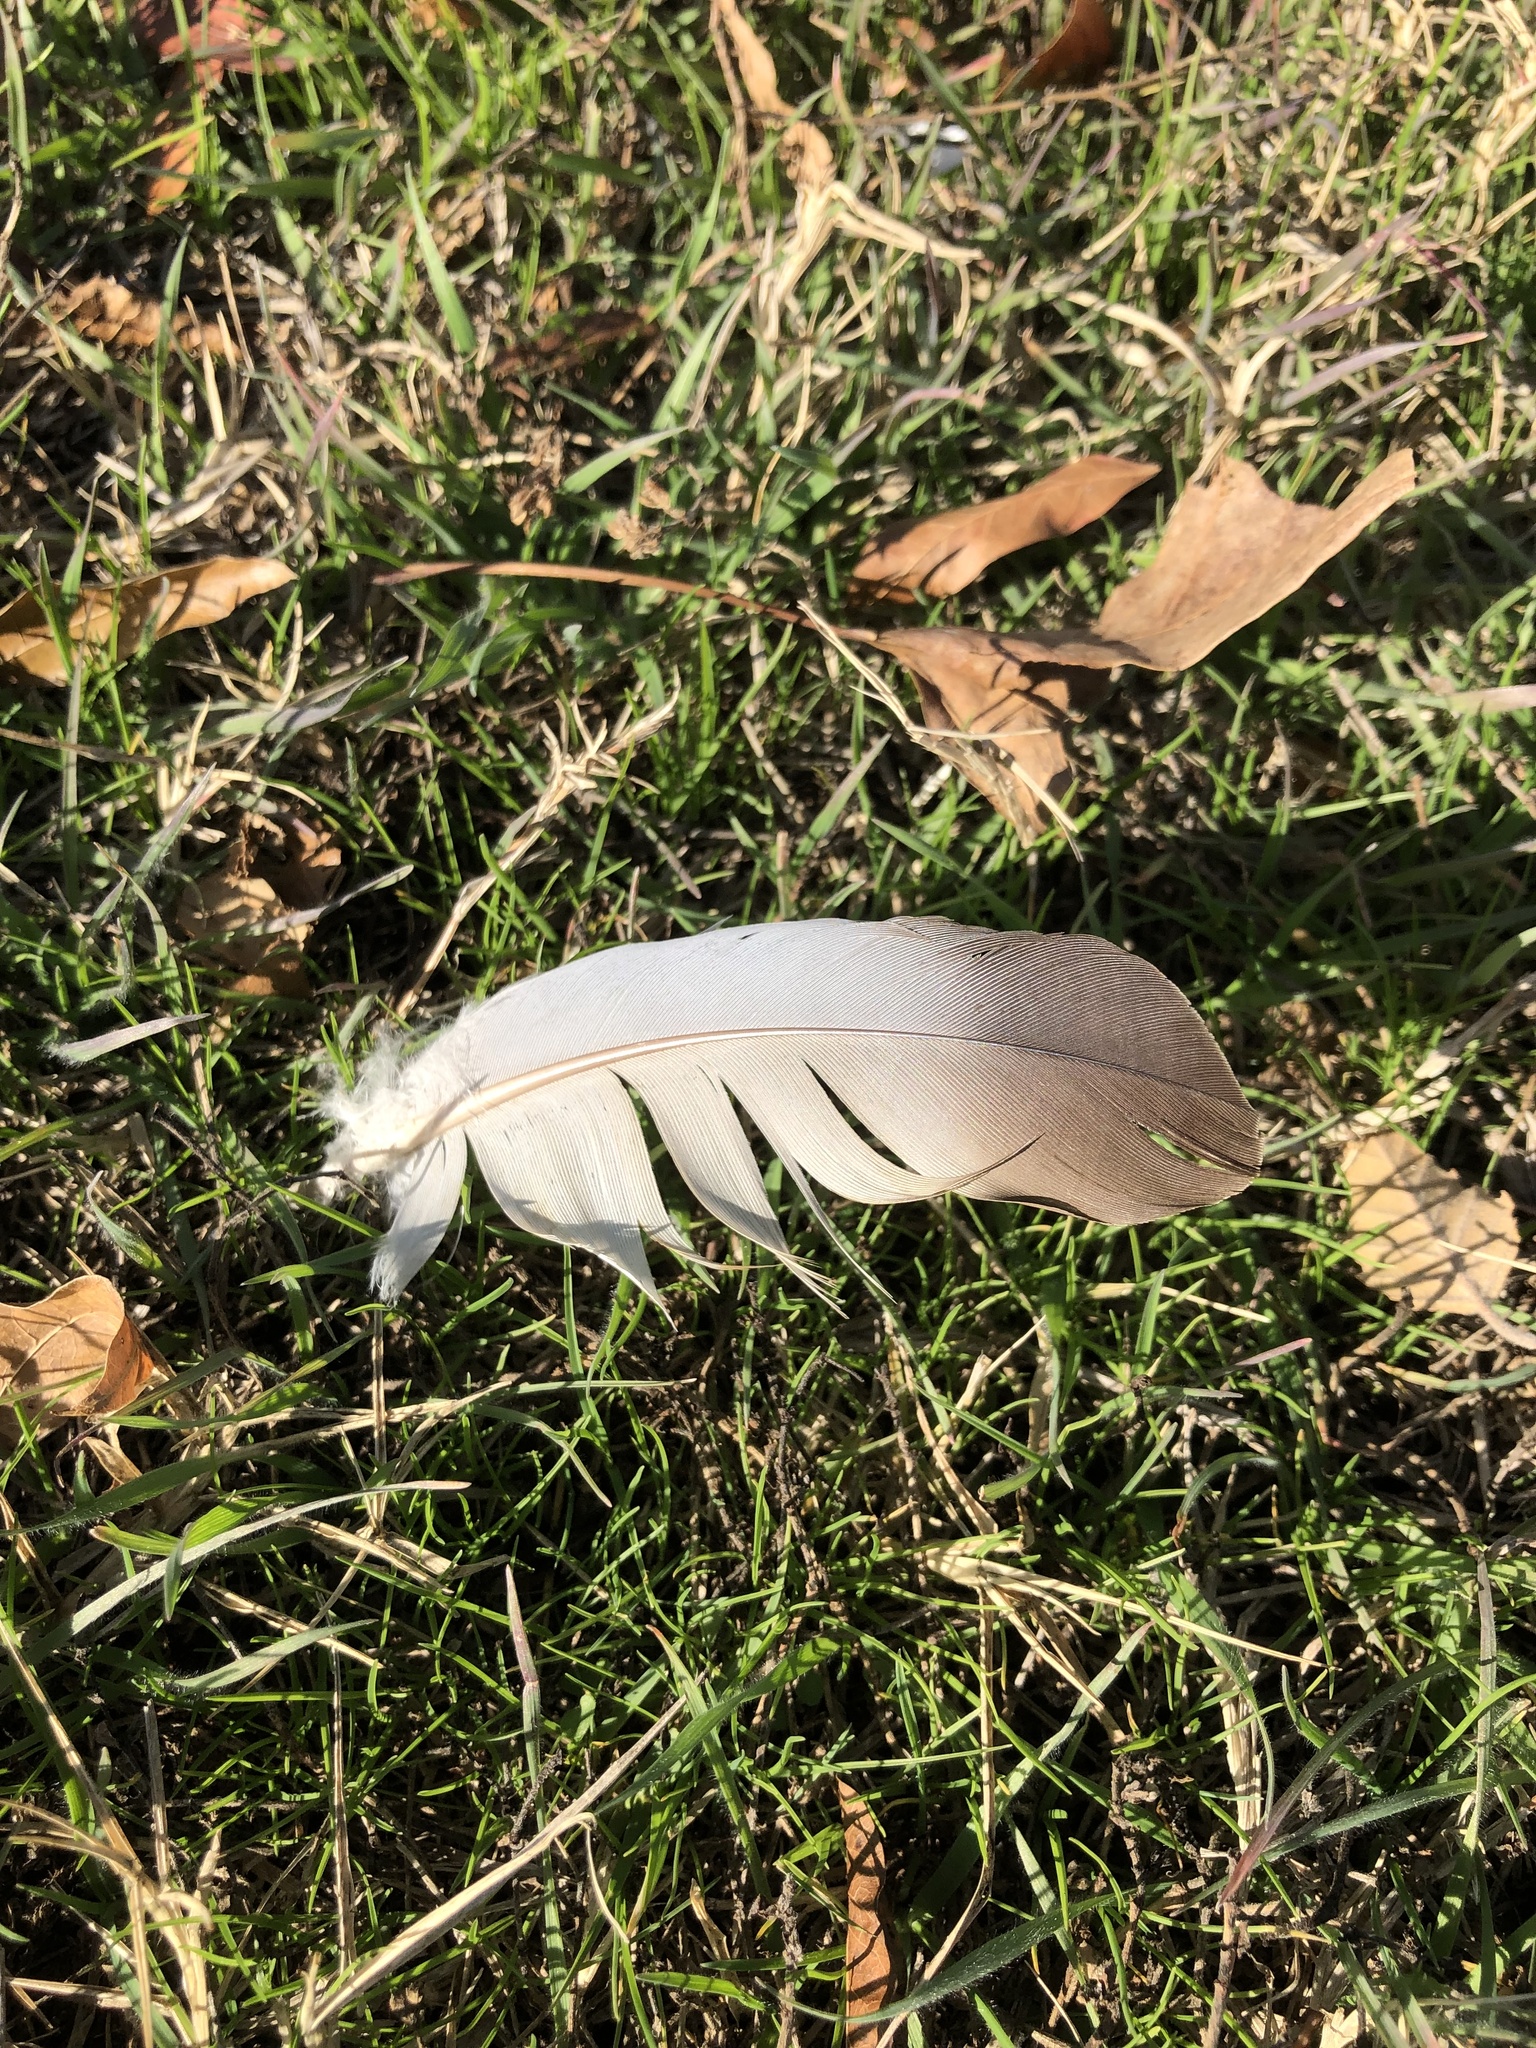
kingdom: Animalia
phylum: Chordata
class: Aves
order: Columbiformes
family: Columbidae
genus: Columba
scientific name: Columba livia
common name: Rock pigeon
